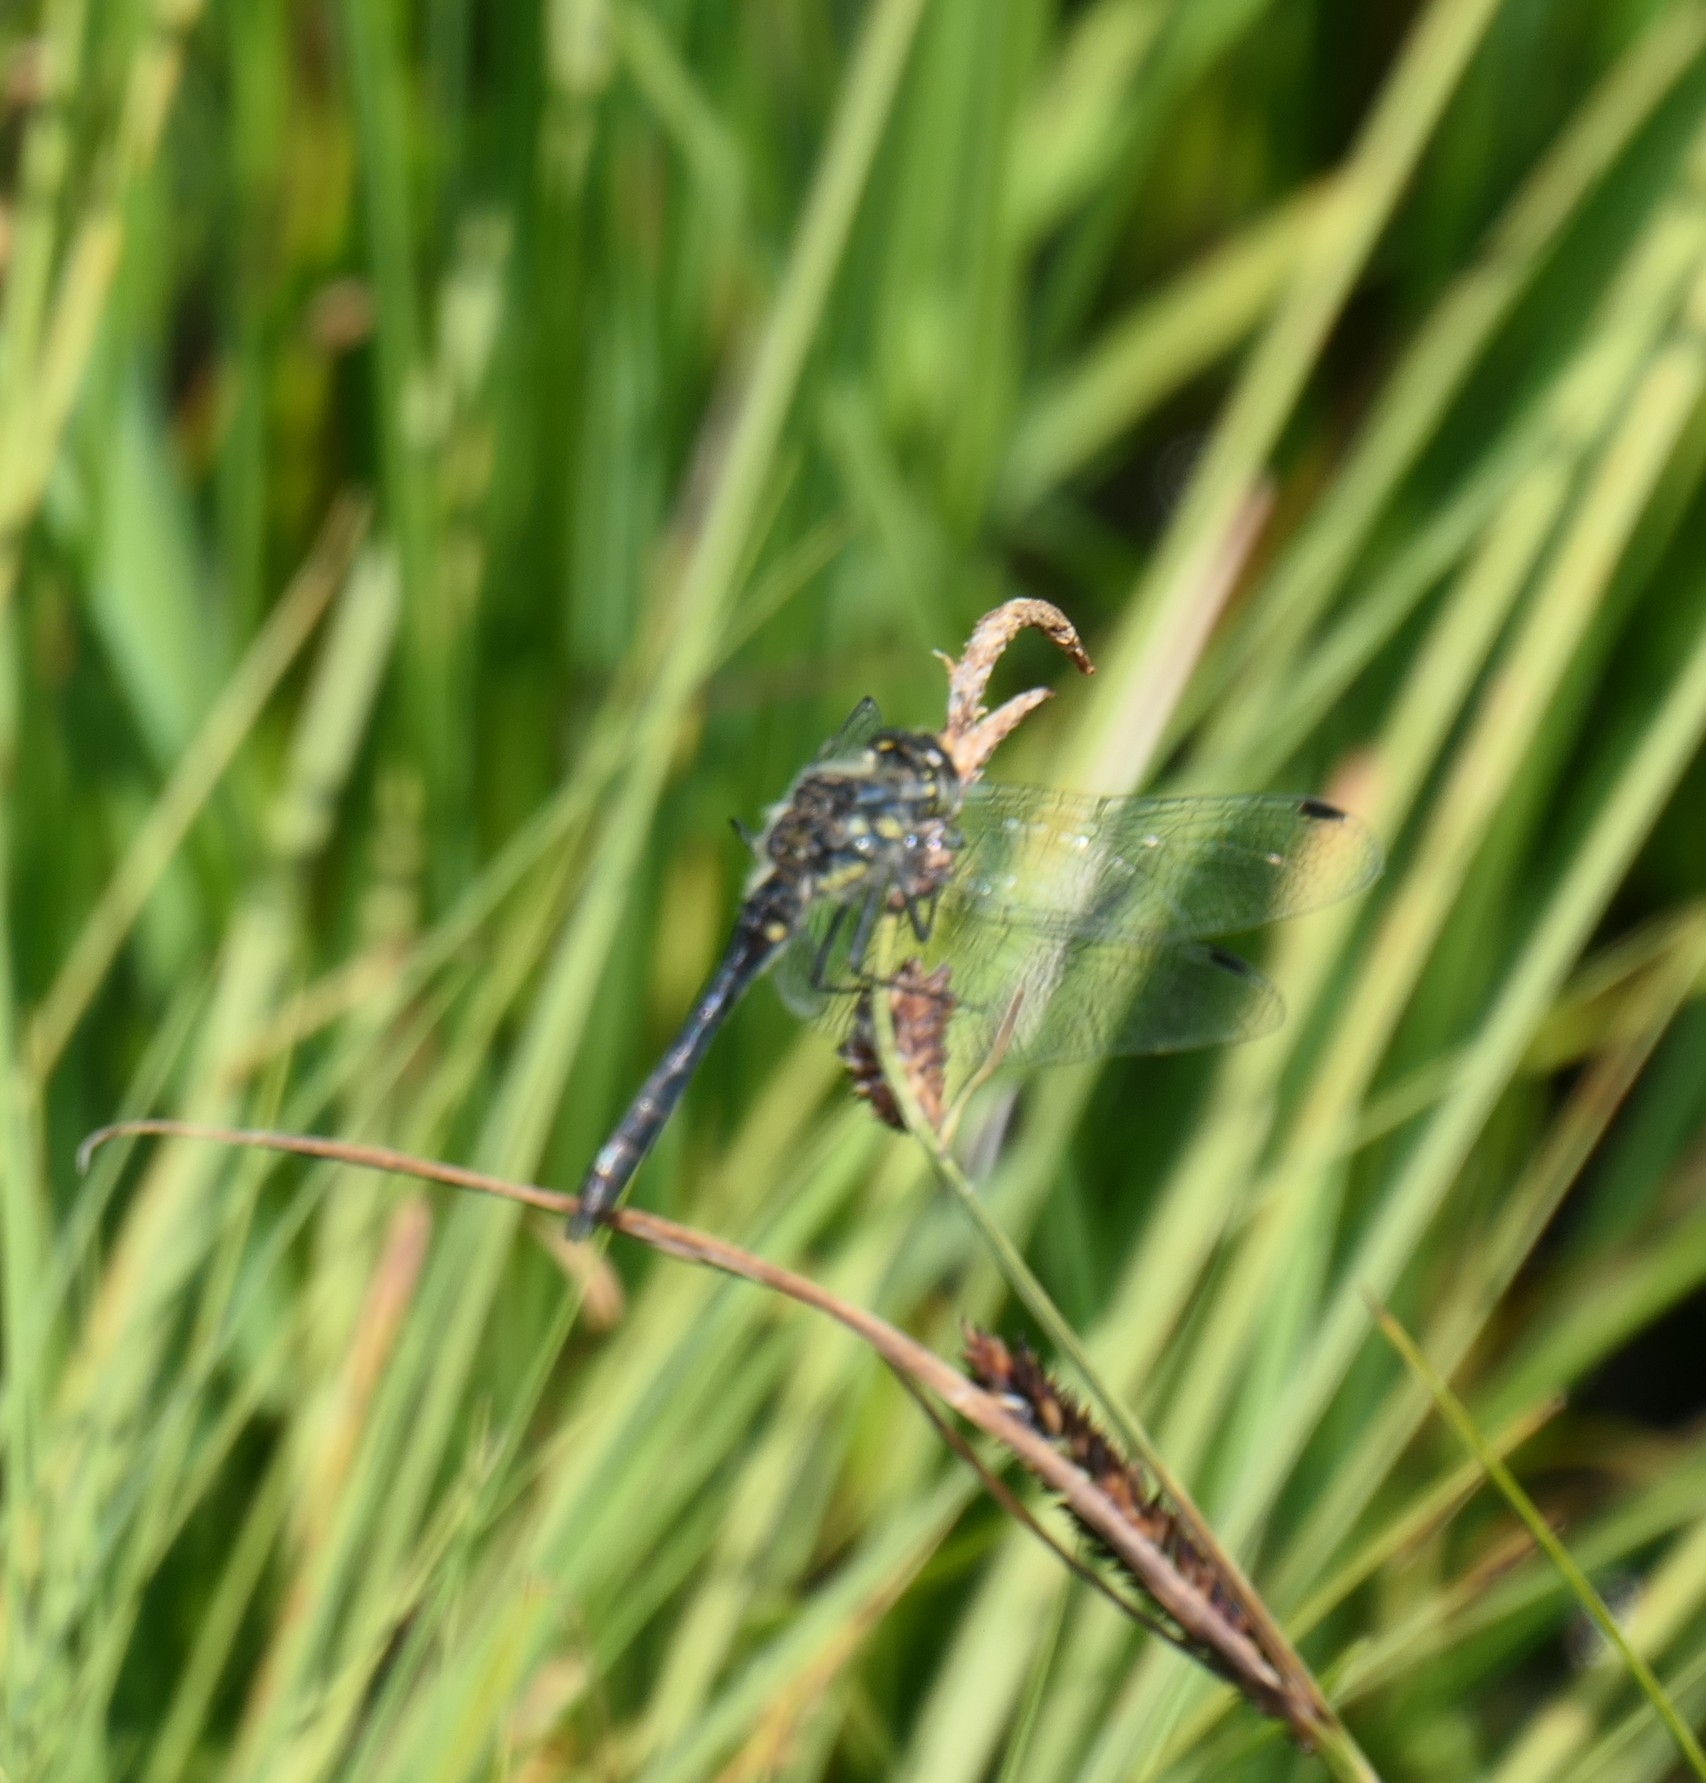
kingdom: Animalia
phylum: Arthropoda
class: Insecta
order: Odonata
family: Libellulidae
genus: Sympetrum
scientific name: Sympetrum danae
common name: Black darter
